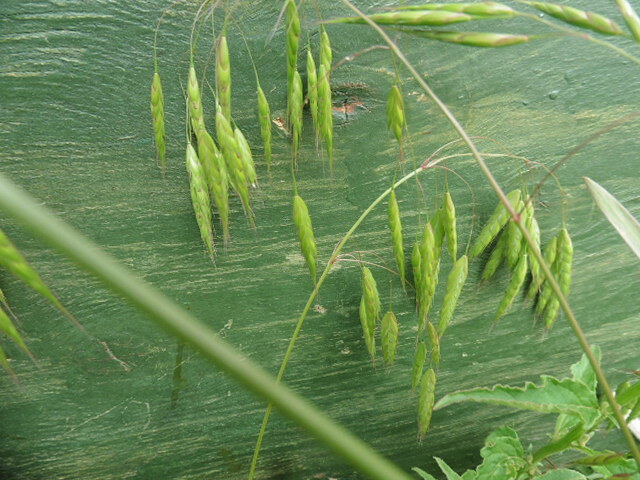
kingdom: Plantae
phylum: Tracheophyta
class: Liliopsida
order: Poales
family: Poaceae
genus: Bromus
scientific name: Bromus squarrosus
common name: Corn brome
